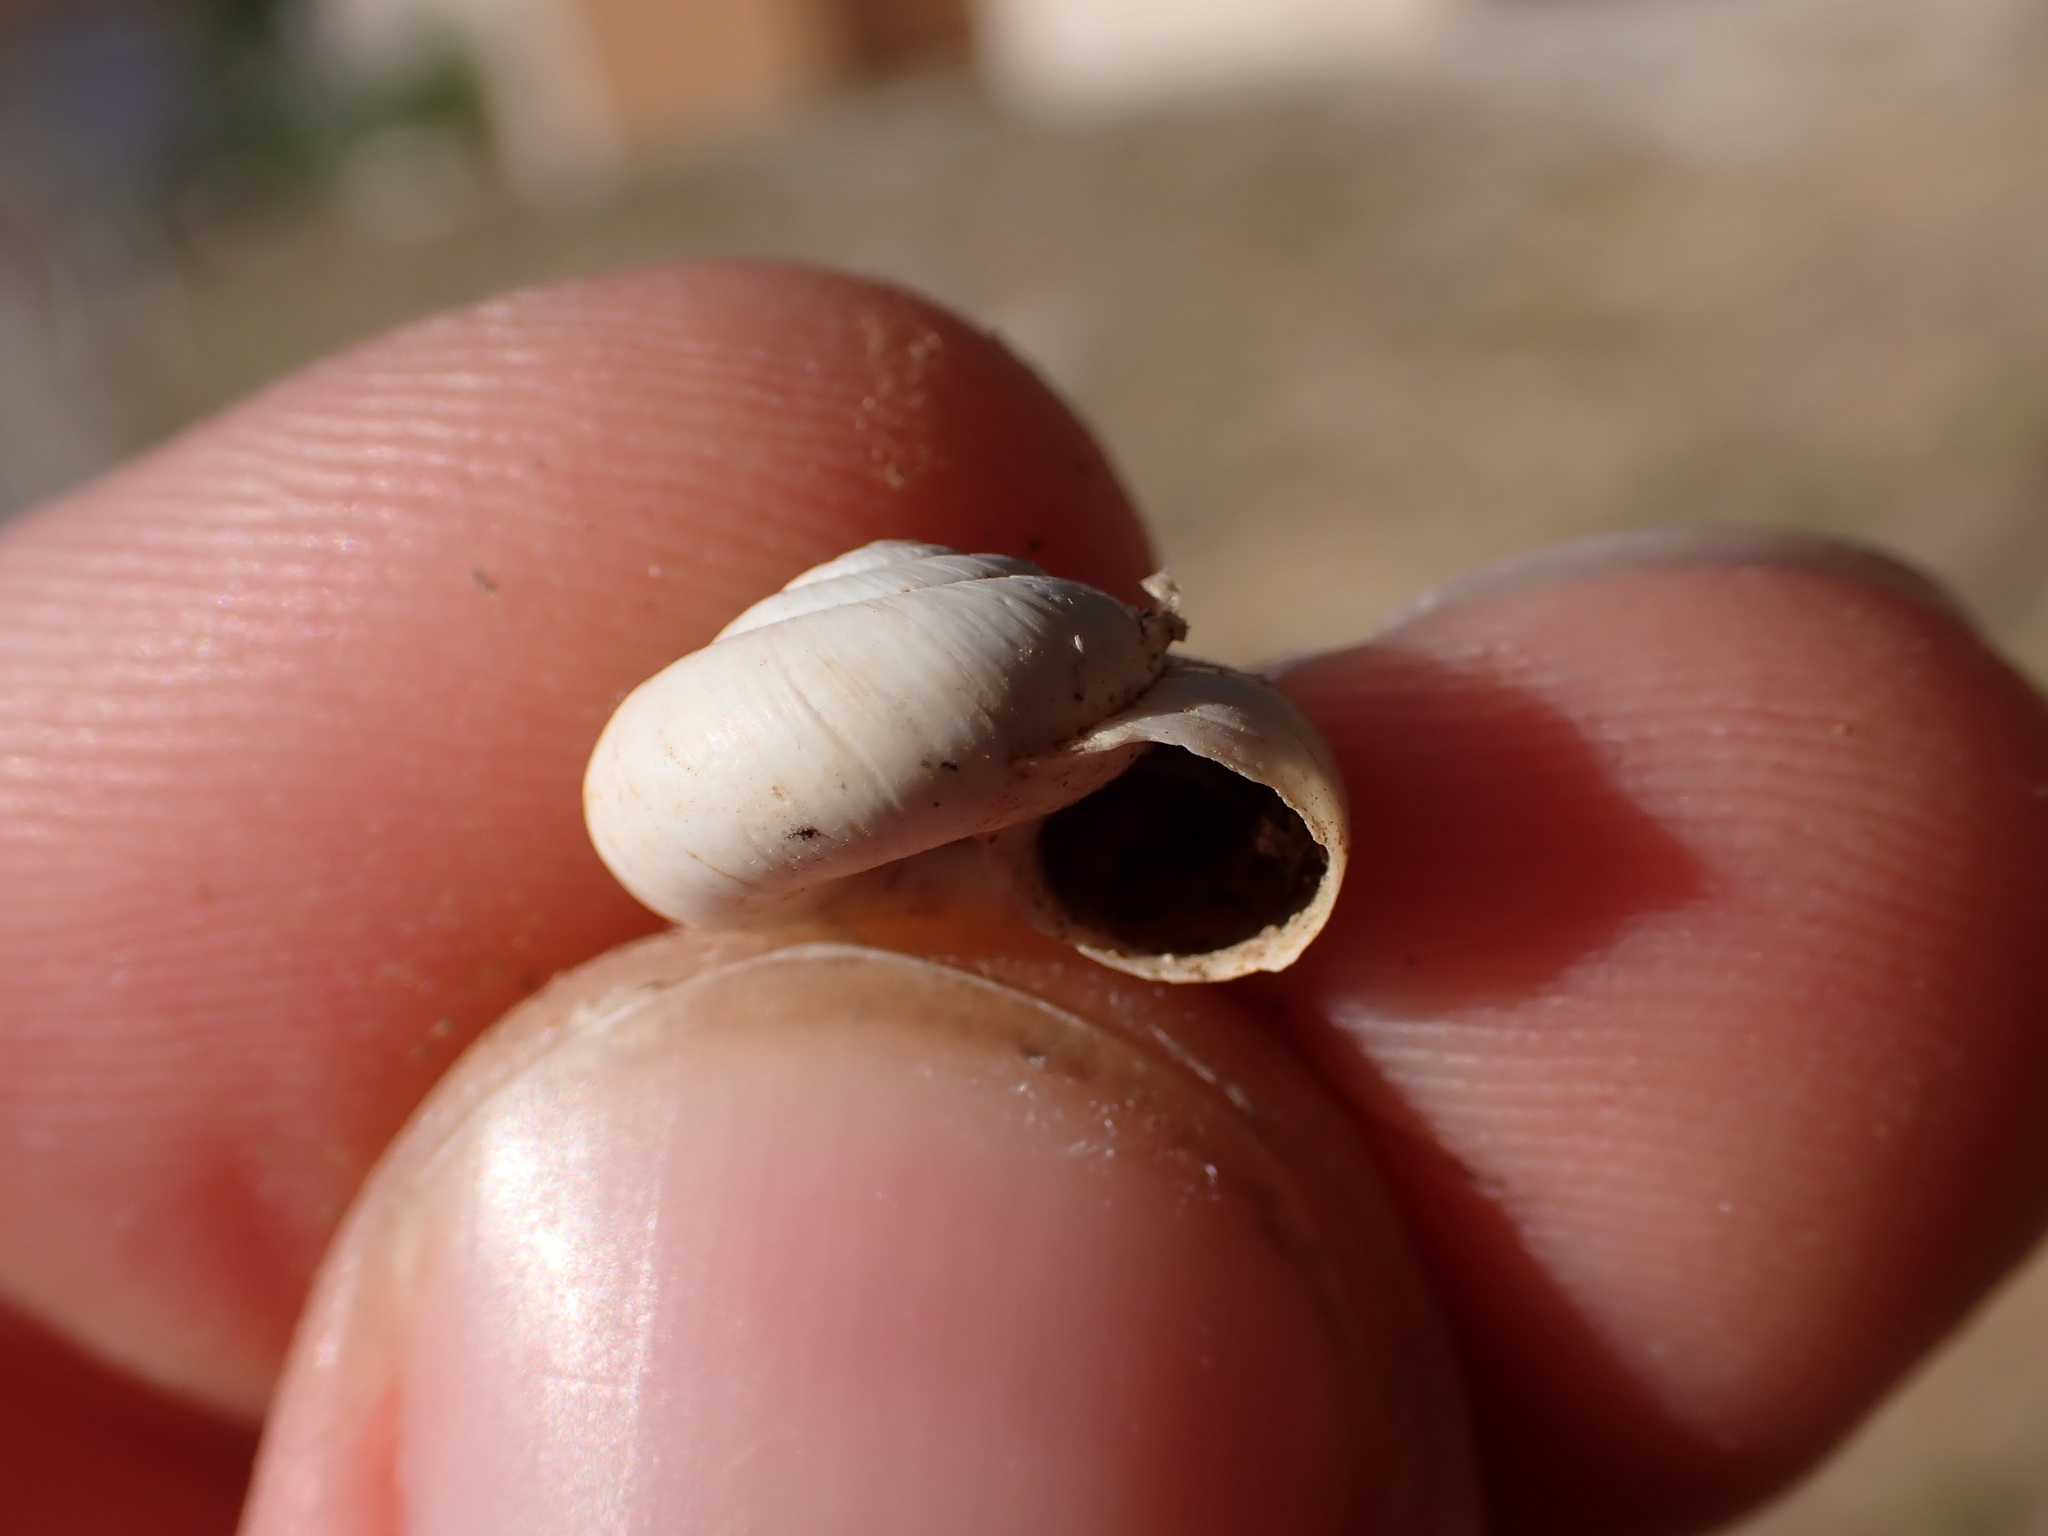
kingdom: Animalia
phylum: Mollusca
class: Gastropoda
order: Stylommatophora
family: Geomitridae
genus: Xeropicta
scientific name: Xeropicta derbentina
